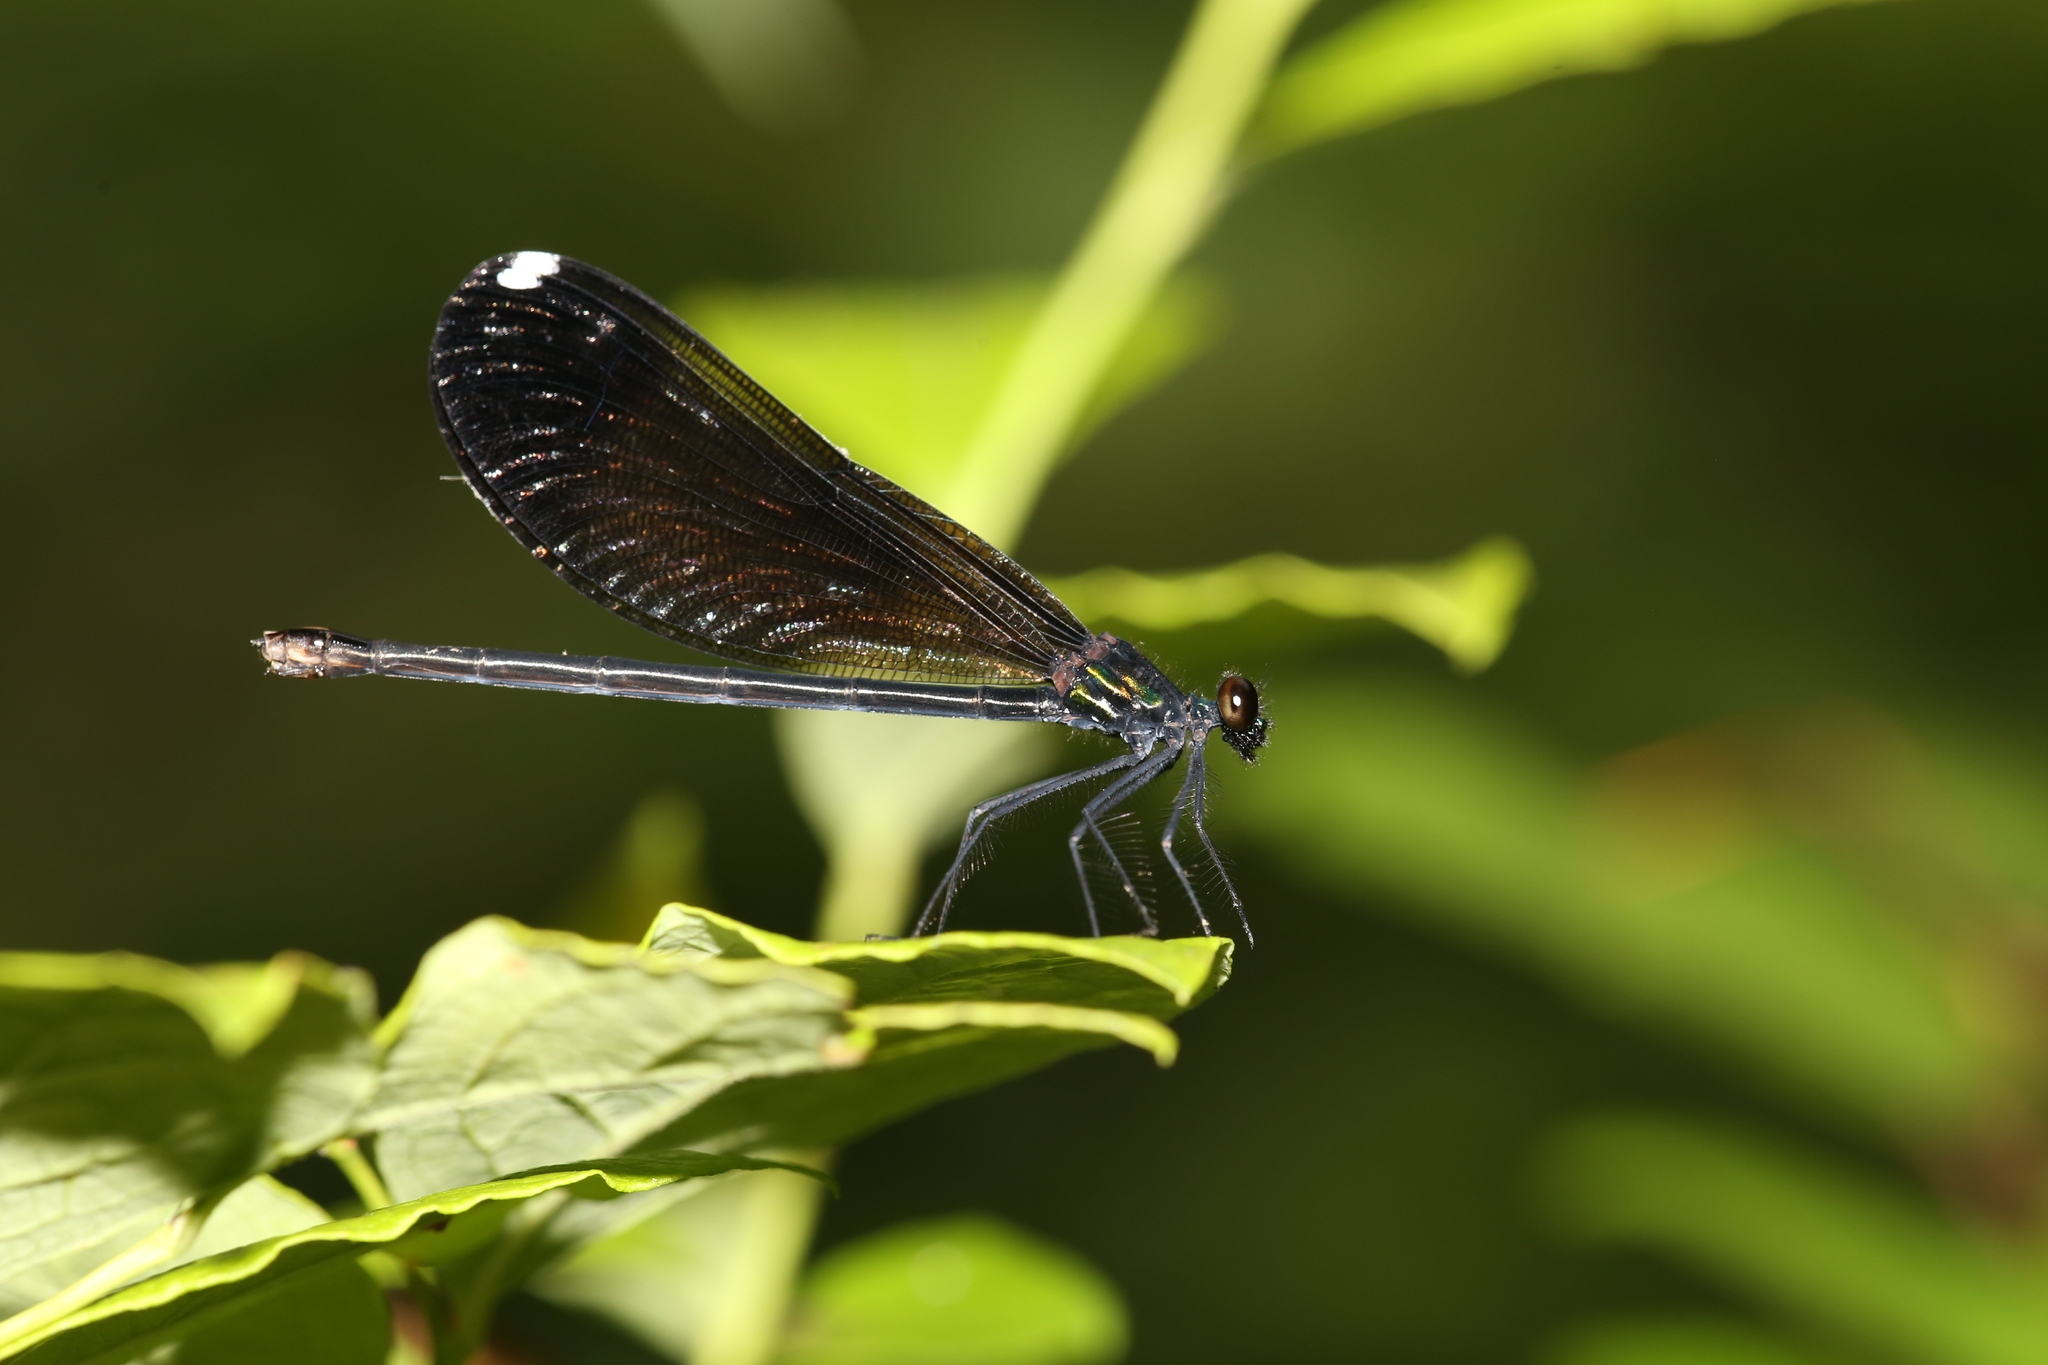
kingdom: Animalia
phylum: Arthropoda
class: Insecta
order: Odonata
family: Calopterygidae
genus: Calopteryx
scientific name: Calopteryx maculata
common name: Ebony jewelwing
